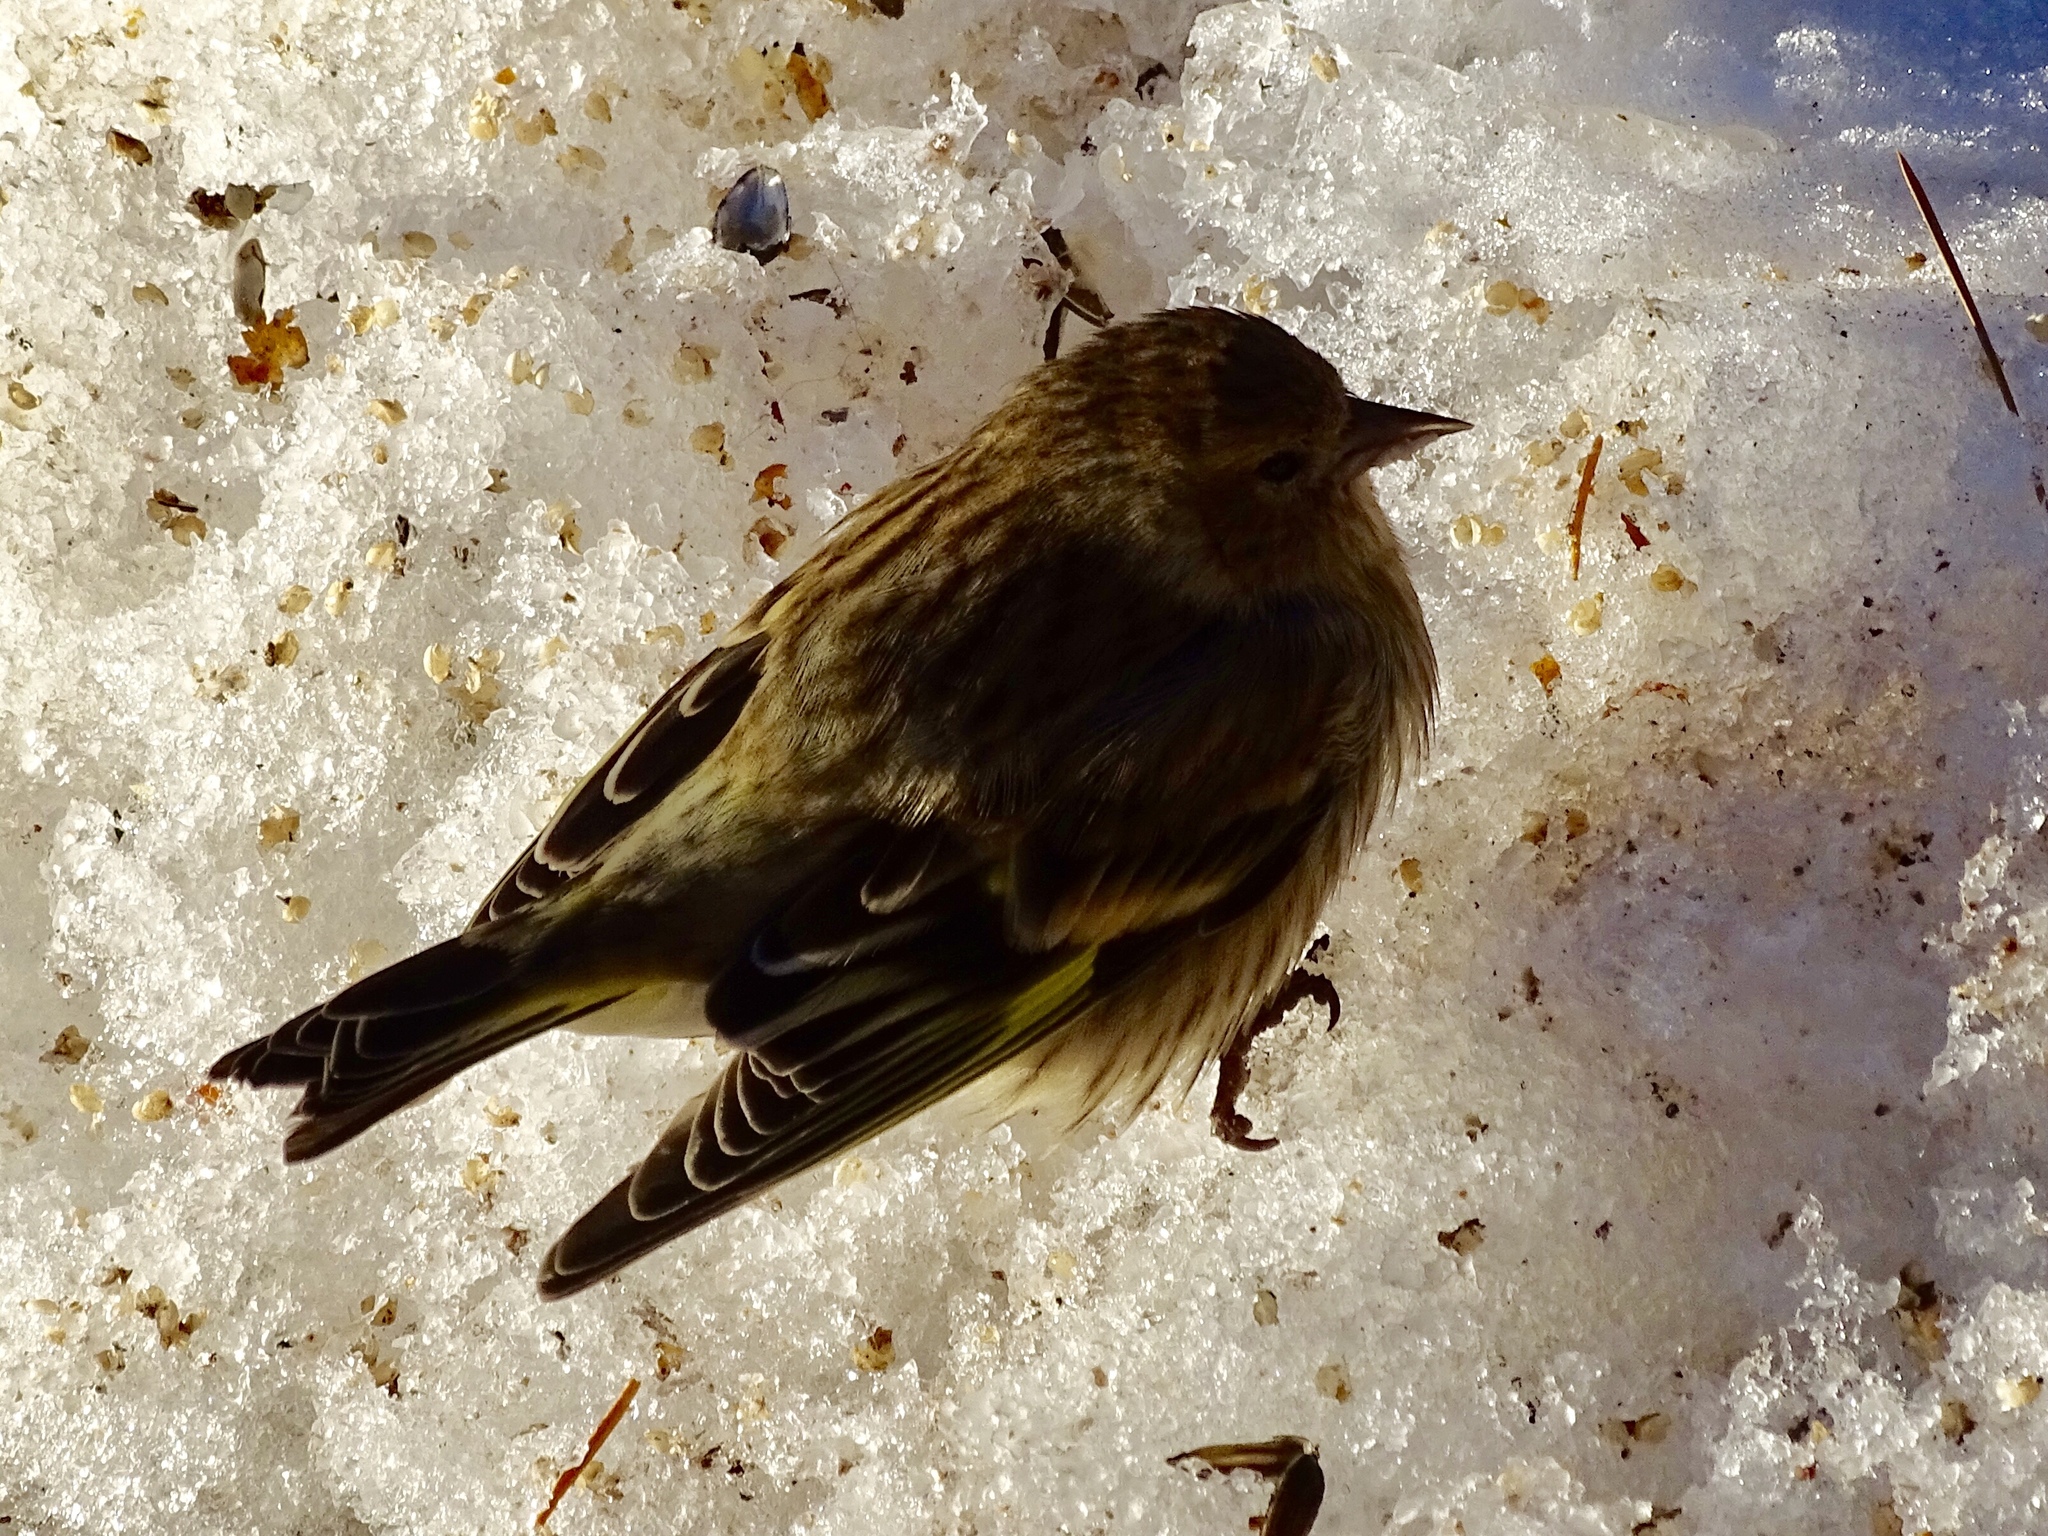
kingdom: Animalia
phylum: Chordata
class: Aves
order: Passeriformes
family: Fringillidae
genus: Spinus
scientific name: Spinus pinus
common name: Pine siskin
